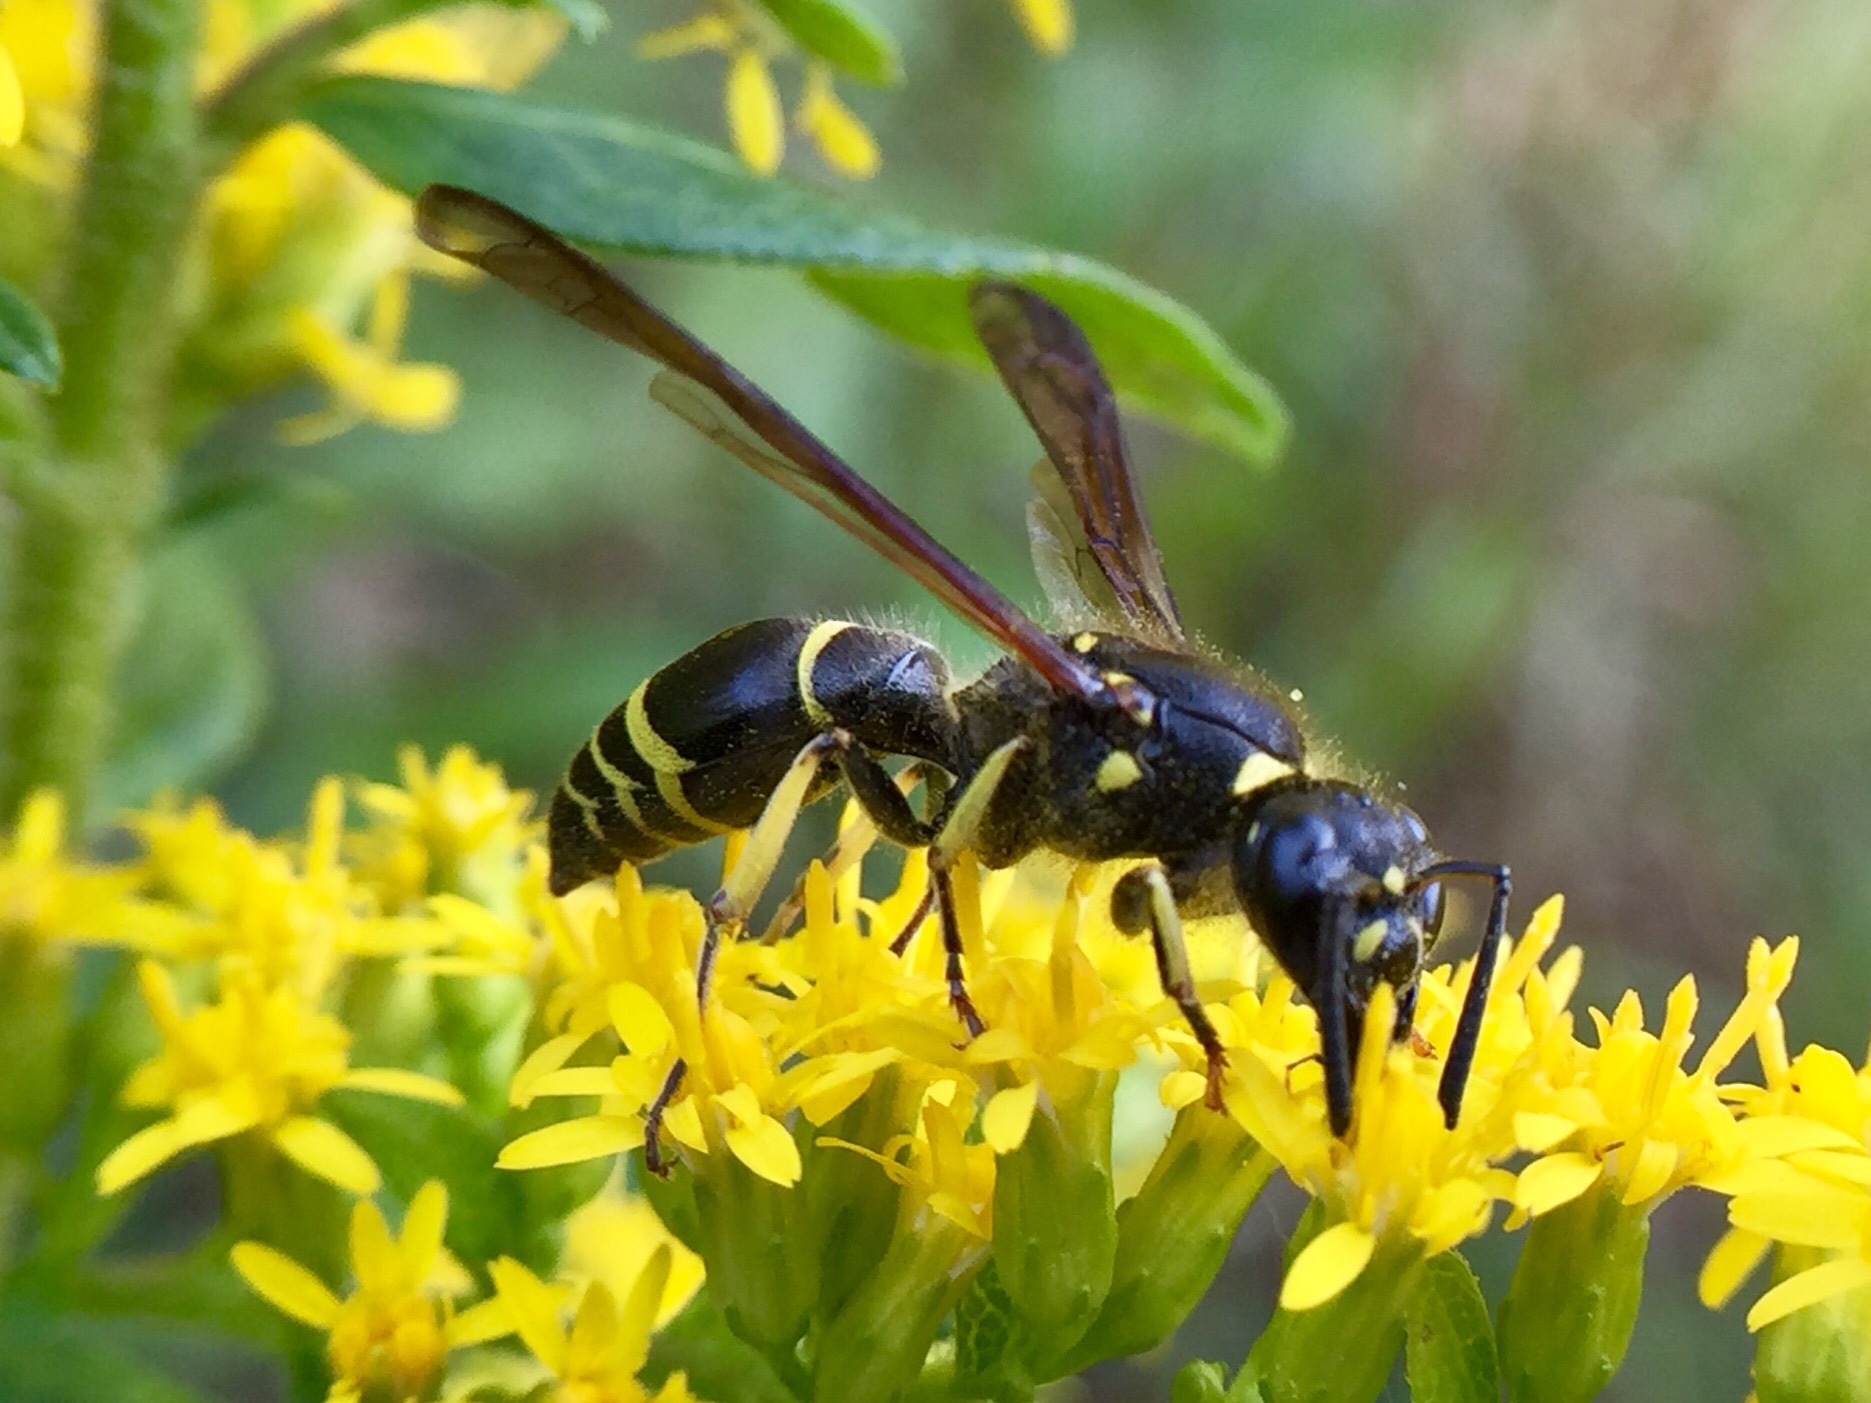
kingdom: Animalia
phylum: Arthropoda
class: Insecta
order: Hymenoptera
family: Vespidae
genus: Ancistrocerus
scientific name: Ancistrocerus
